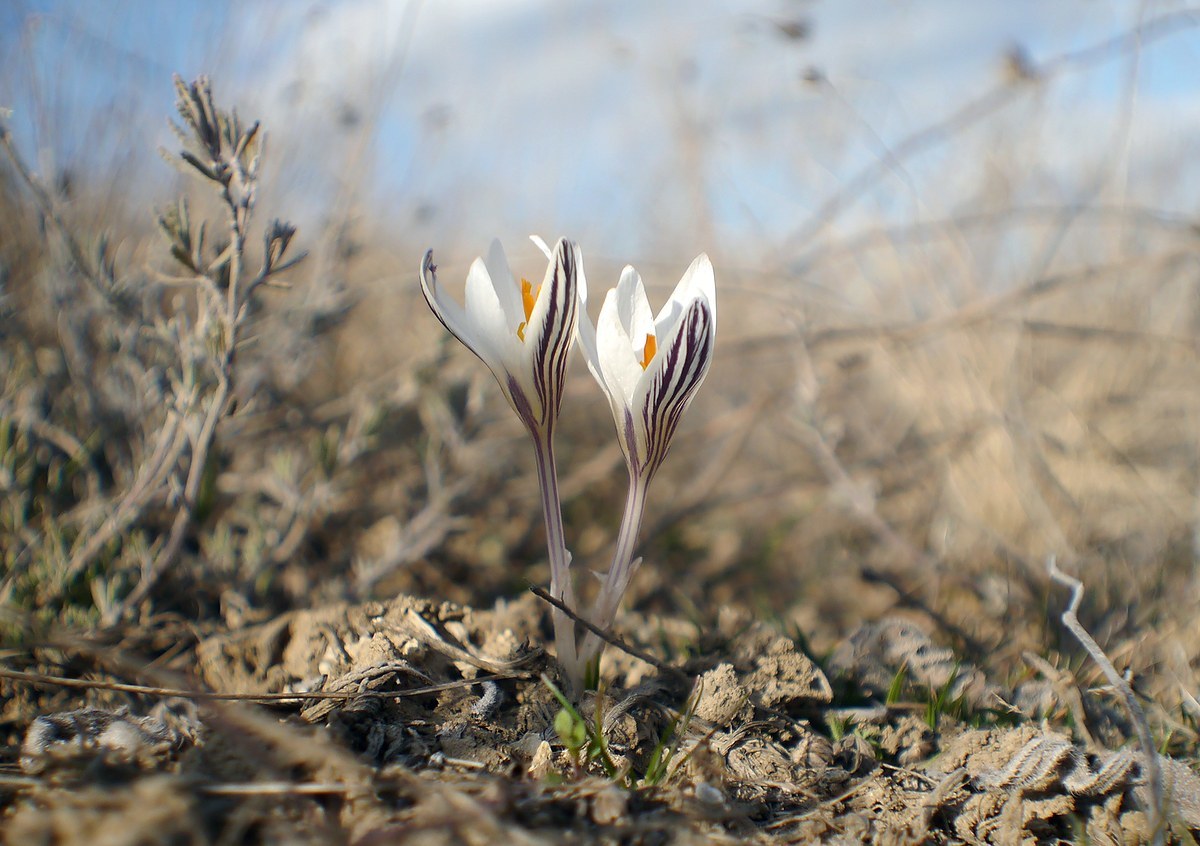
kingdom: Plantae
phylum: Tracheophyta
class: Liliopsida
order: Asparagales
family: Iridaceae
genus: Crocus
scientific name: Crocus reticulatus
